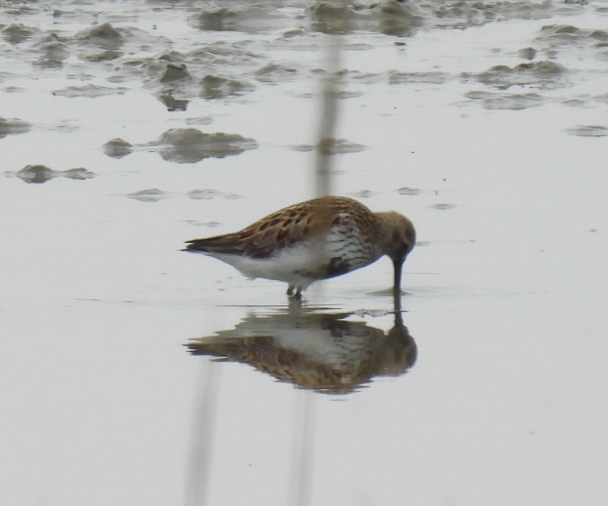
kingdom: Animalia
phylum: Chordata
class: Aves
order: Charadriiformes
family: Scolopacidae
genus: Calidris
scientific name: Calidris alpina
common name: Dunlin
